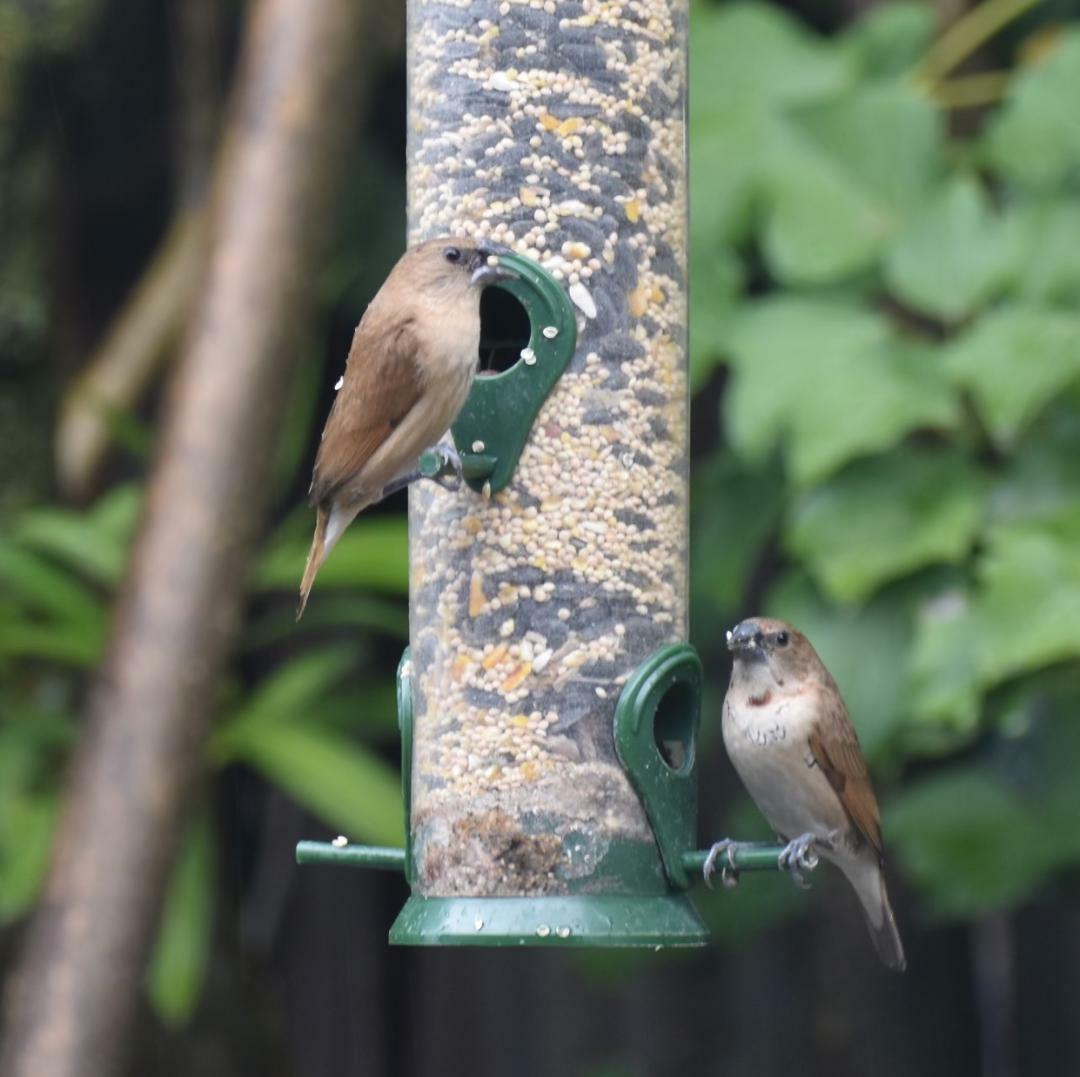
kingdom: Animalia
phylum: Chordata
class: Aves
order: Passeriformes
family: Estrildidae
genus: Lonchura
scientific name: Lonchura punctulata
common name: Scaly-breasted munia
